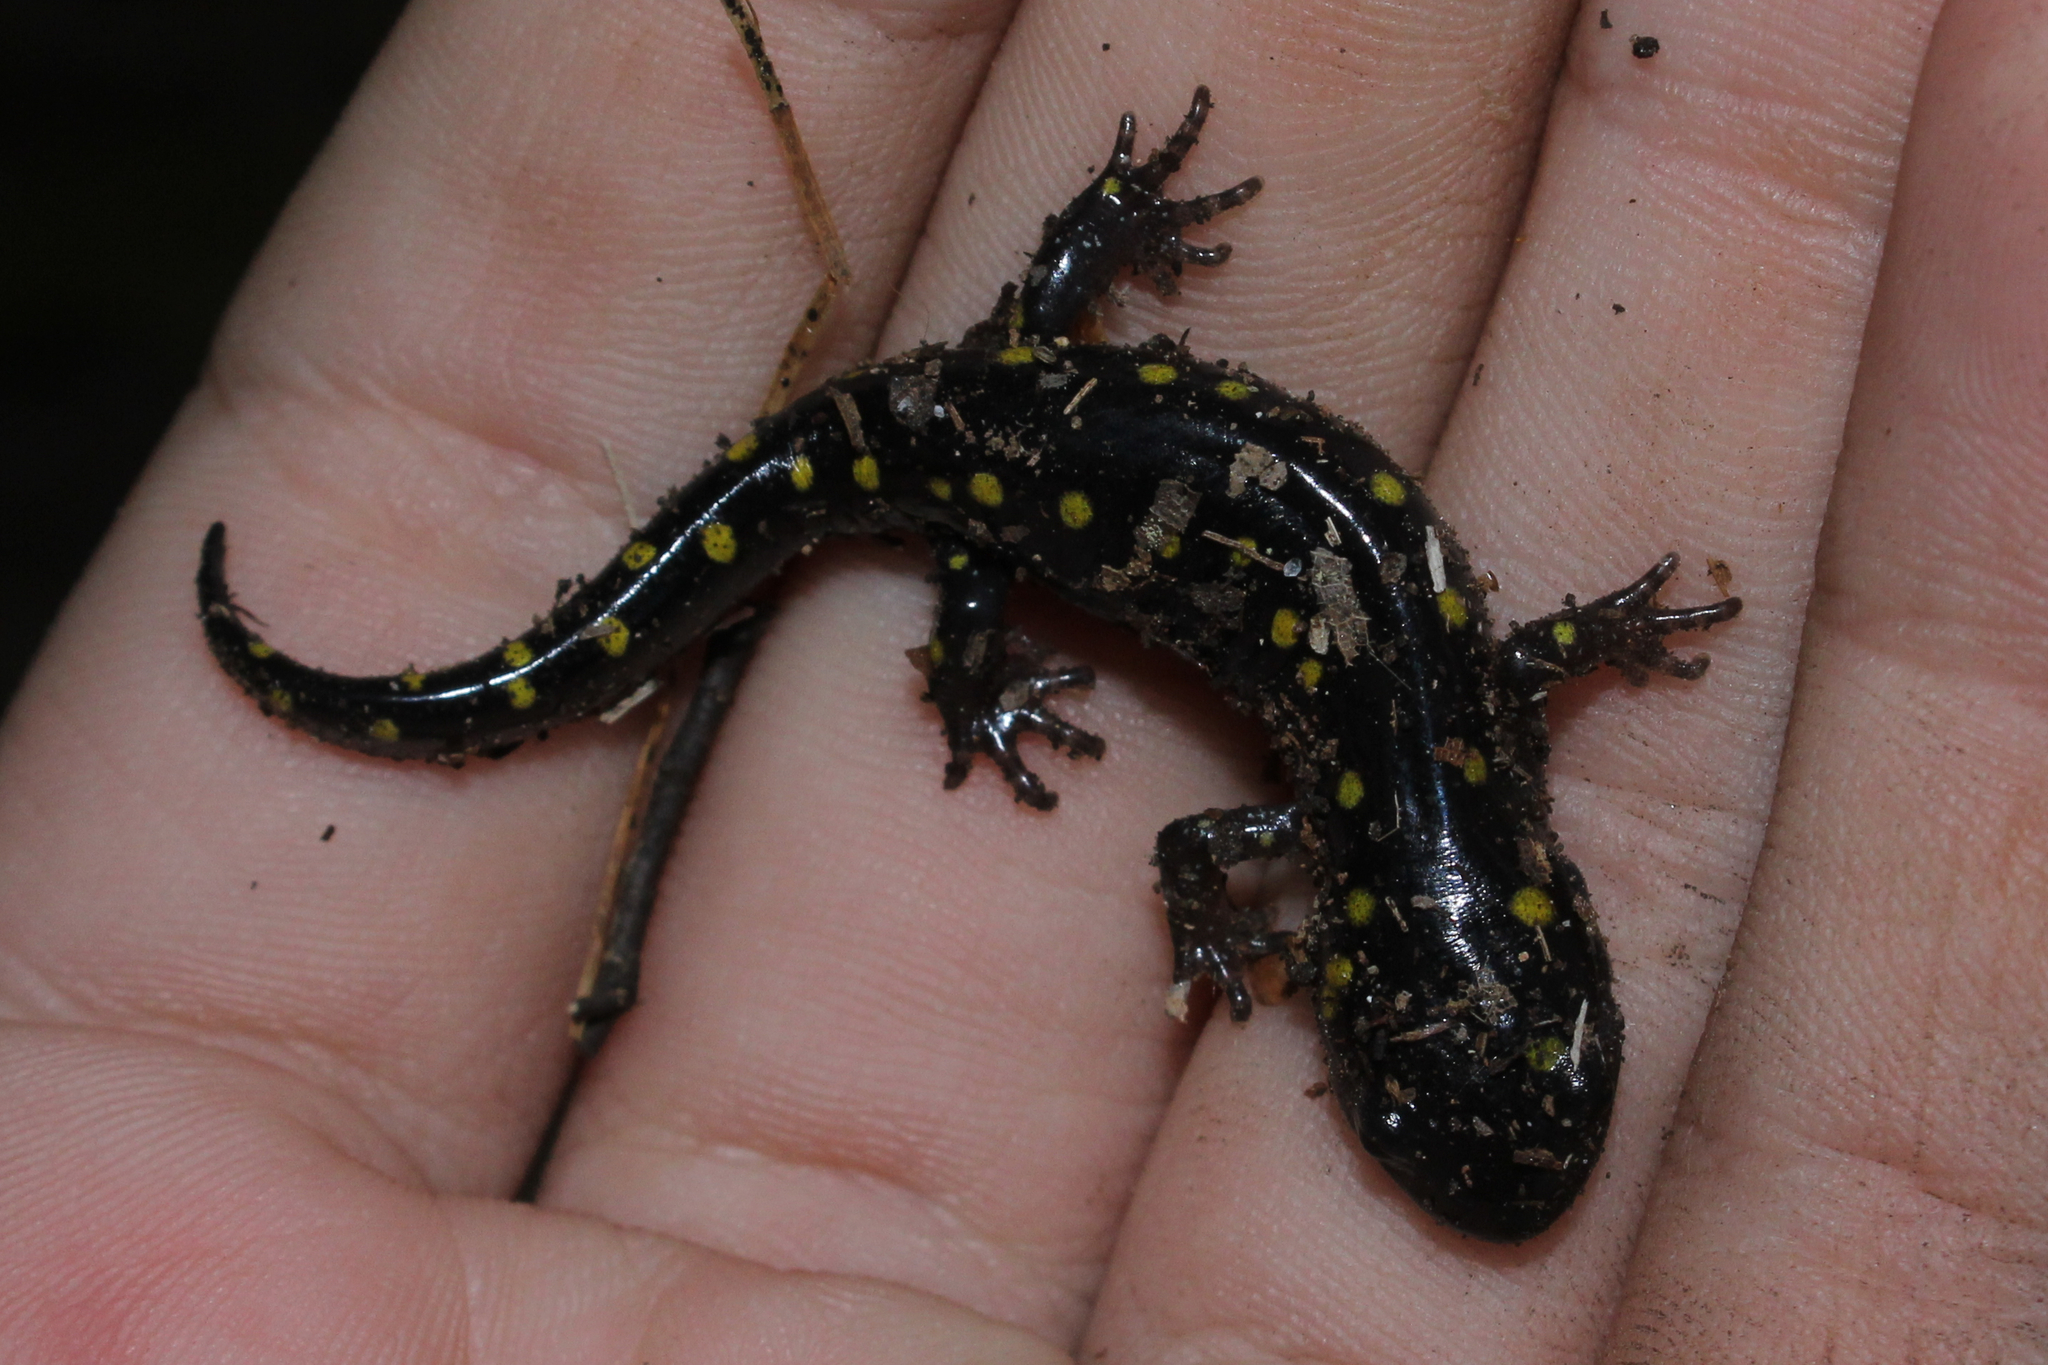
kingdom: Animalia
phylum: Chordata
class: Amphibia
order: Caudata
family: Ambystomatidae
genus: Ambystoma
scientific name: Ambystoma maculatum
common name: Spotted salamander
